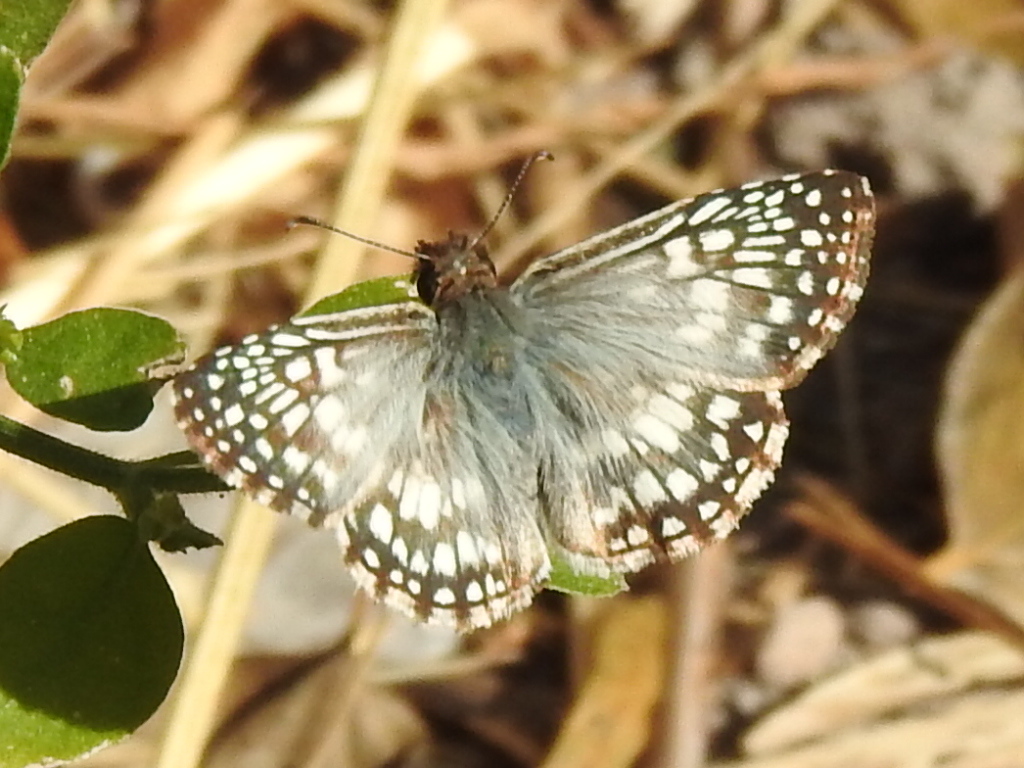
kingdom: Animalia
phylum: Arthropoda
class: Insecta
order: Lepidoptera
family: Hesperiidae
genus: Pyrgus
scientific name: Pyrgus oileus
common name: Tropical checkered-skipper
